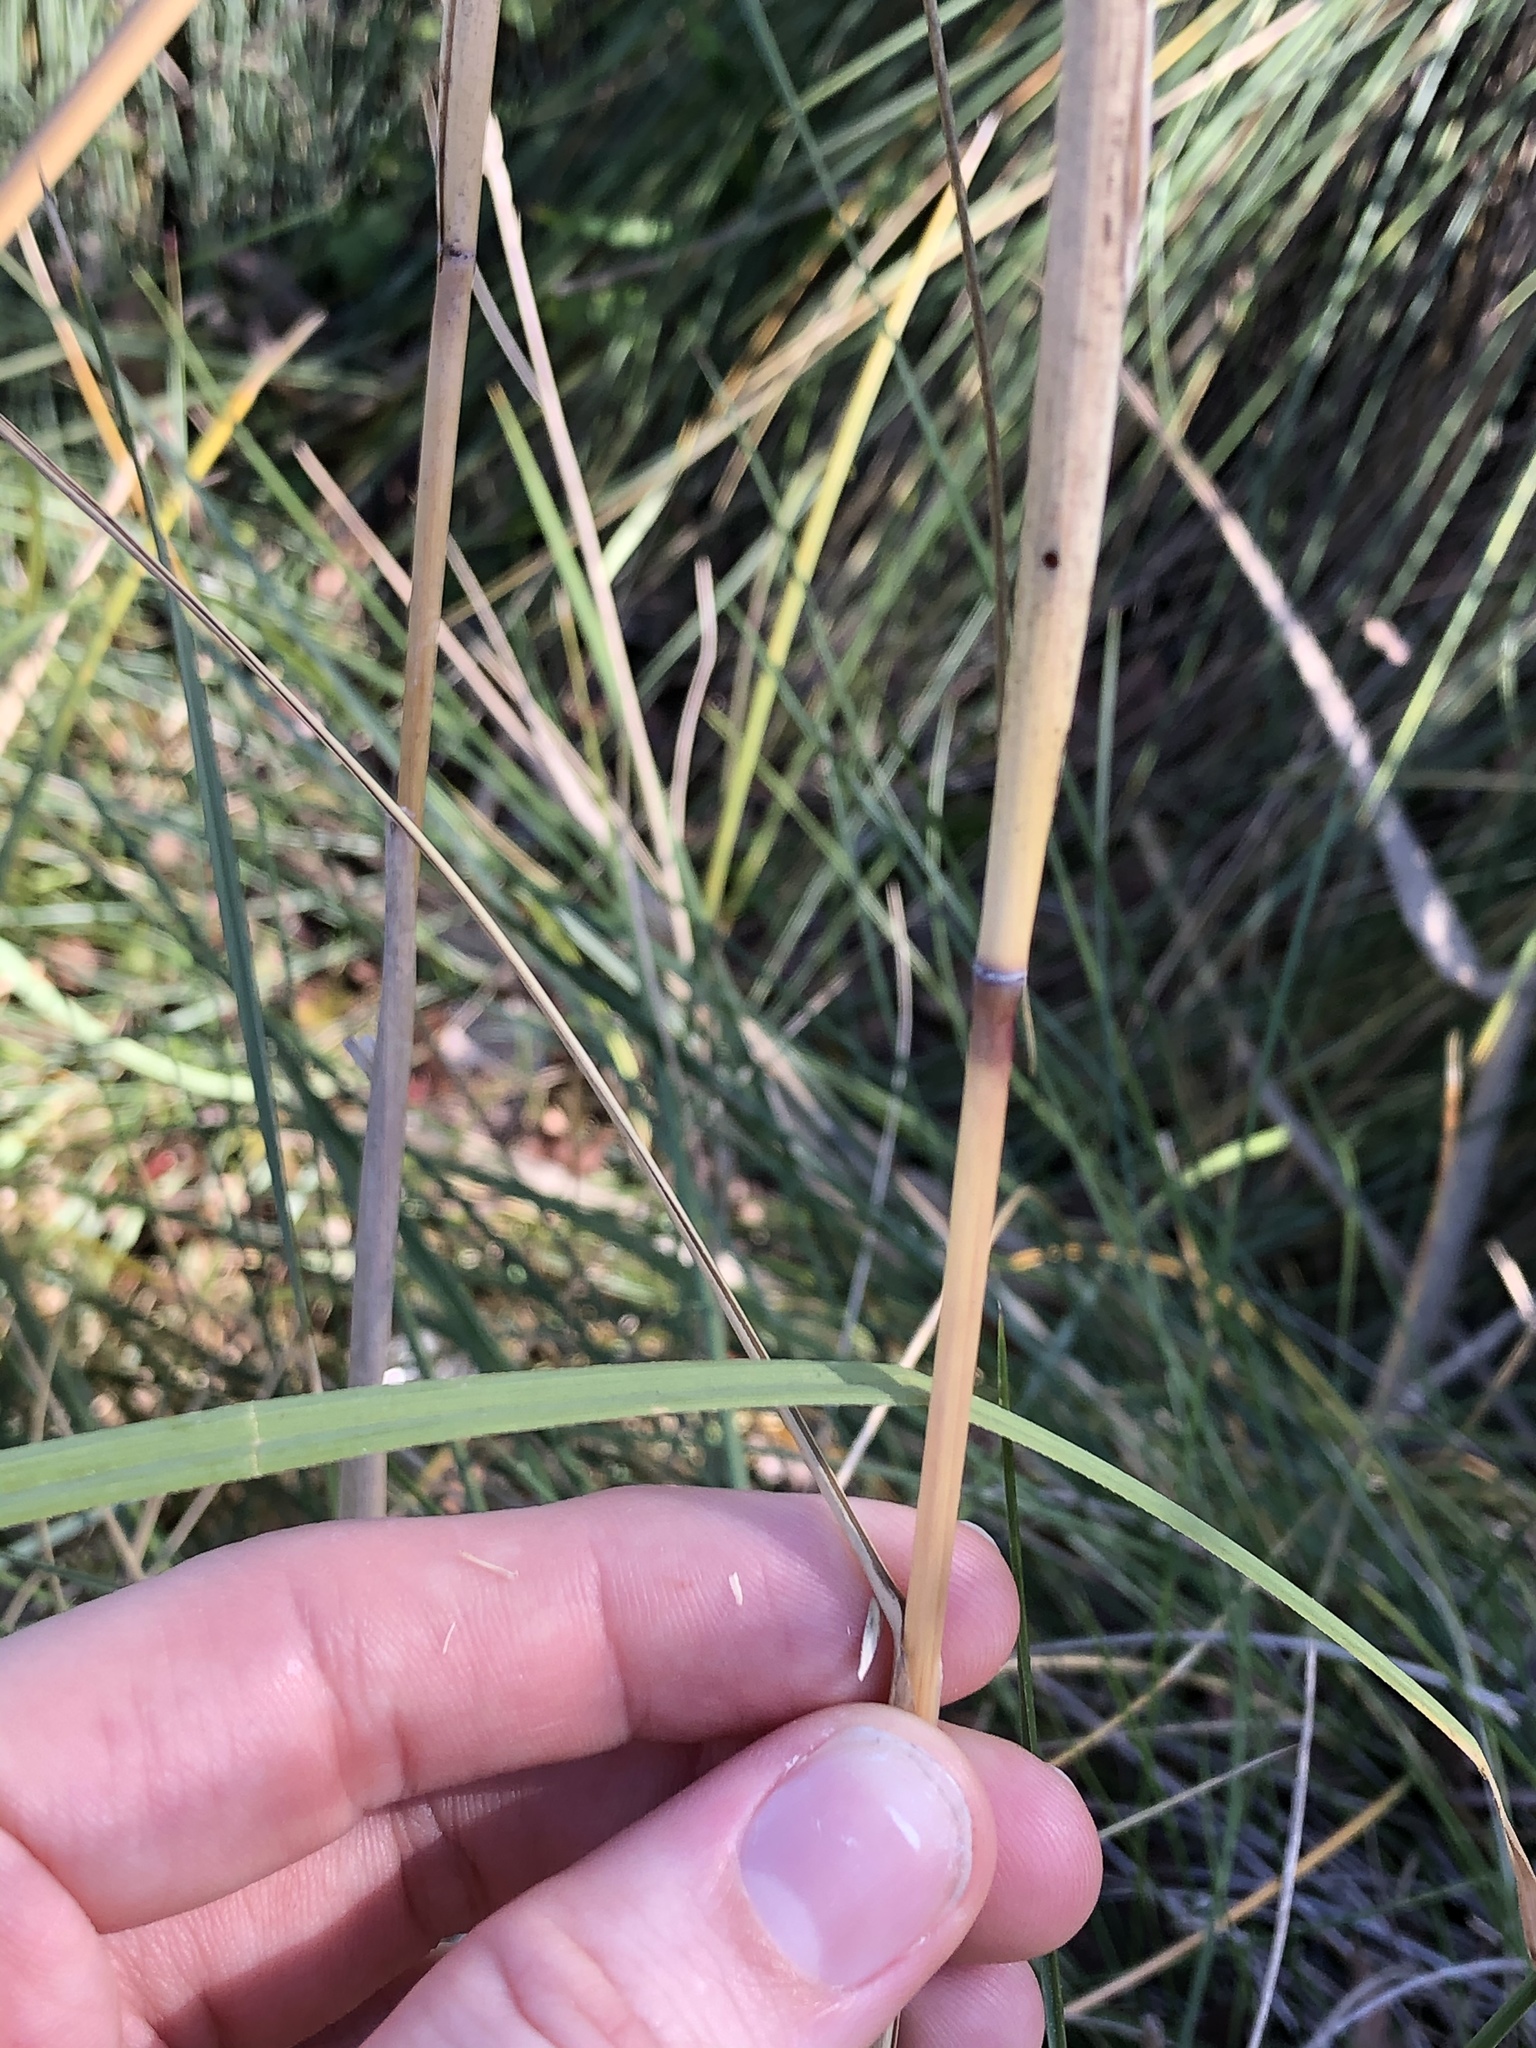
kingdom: Plantae
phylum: Tracheophyta
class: Liliopsida
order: Poales
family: Poaceae
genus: Sporobolus
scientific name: Sporobolus spartinae
